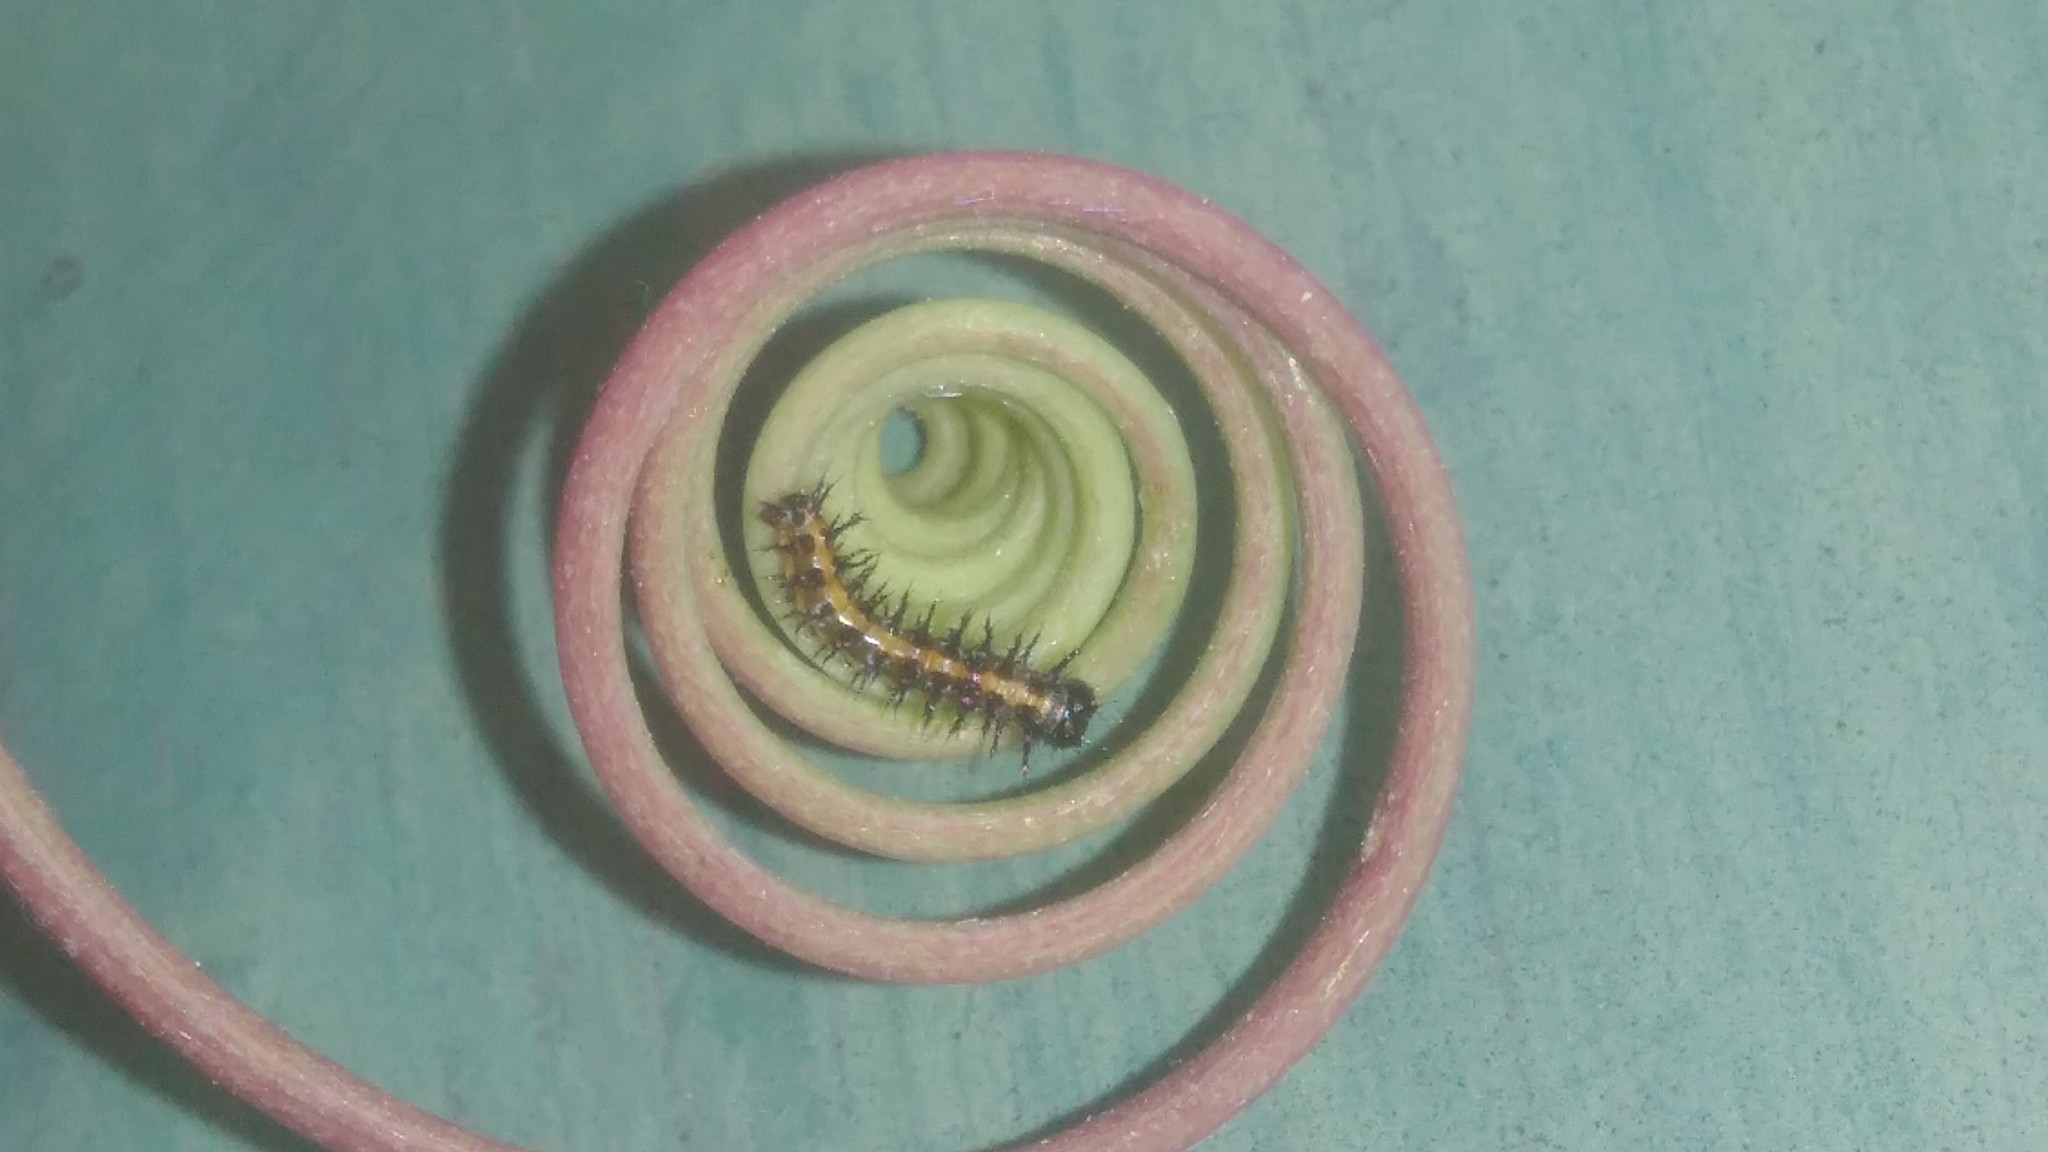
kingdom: Animalia
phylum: Arthropoda
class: Insecta
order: Lepidoptera
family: Nymphalidae
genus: Dione
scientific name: Dione vanillae
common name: Gulf fritillary
